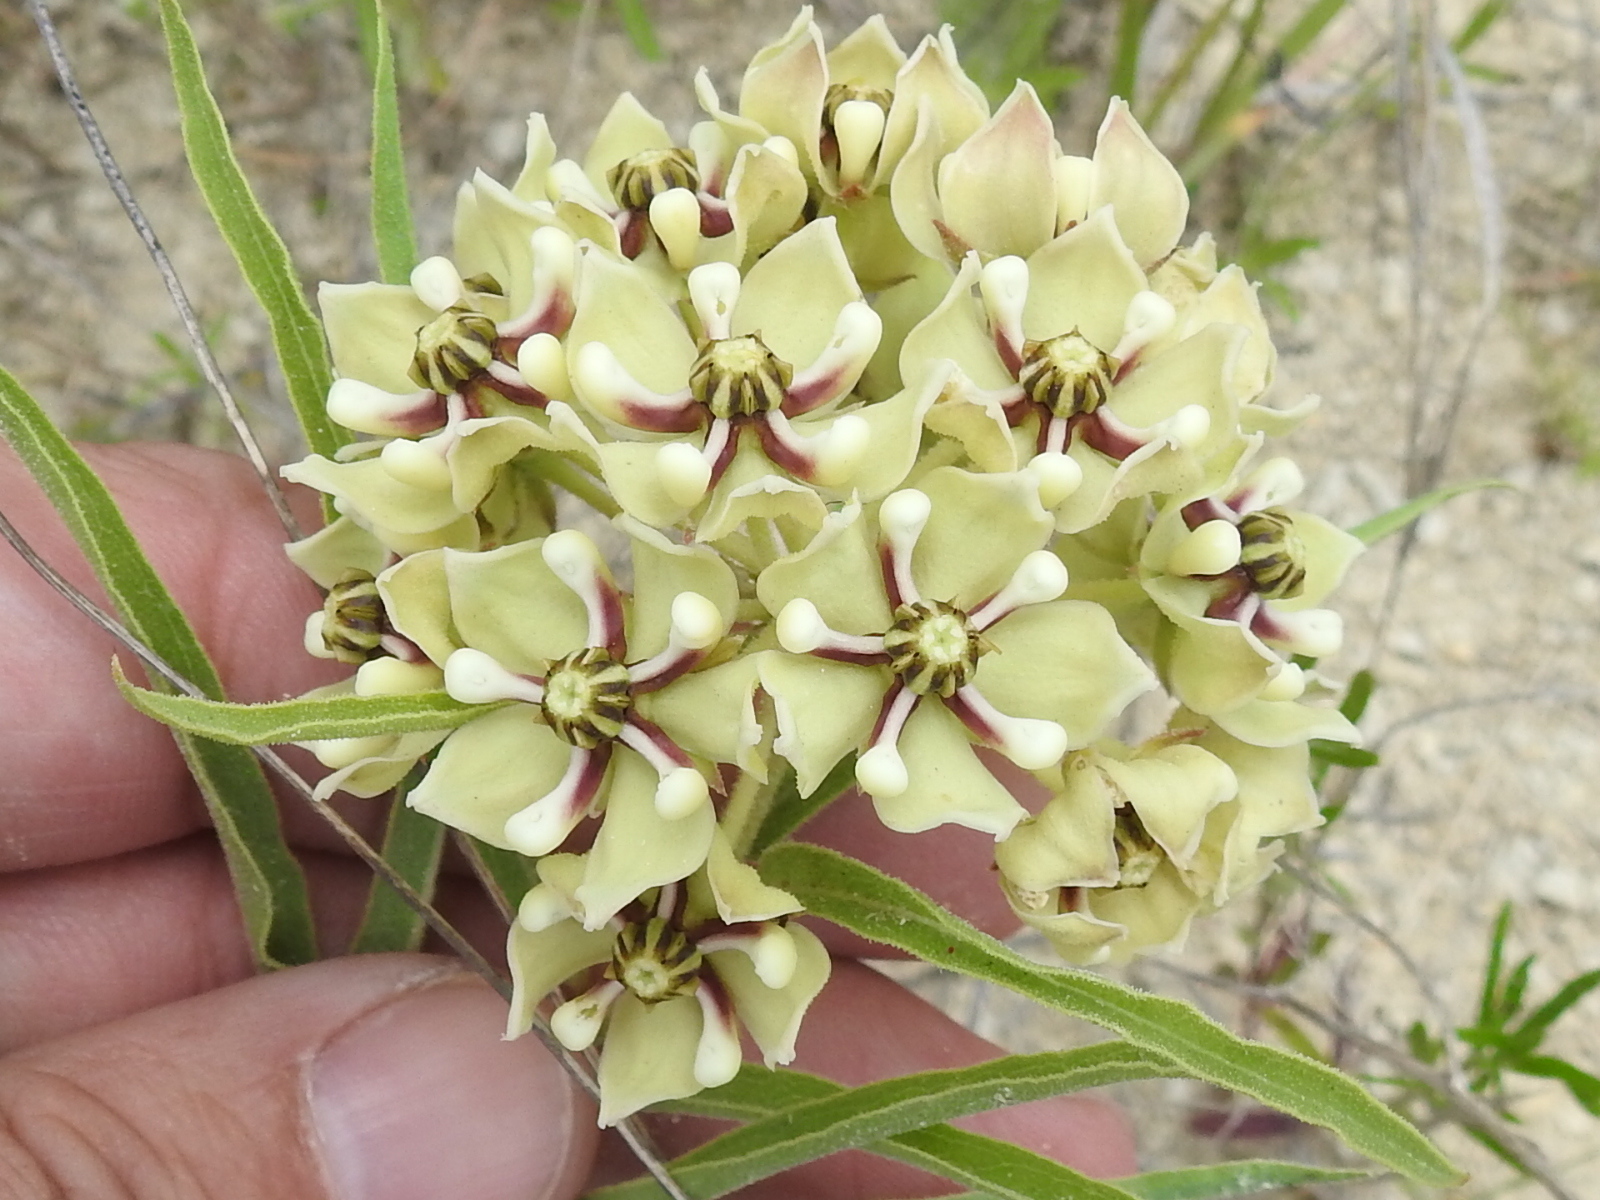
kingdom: Plantae
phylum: Tracheophyta
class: Magnoliopsida
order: Gentianales
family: Apocynaceae
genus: Asclepias
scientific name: Asclepias asperula
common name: Antelope horns
